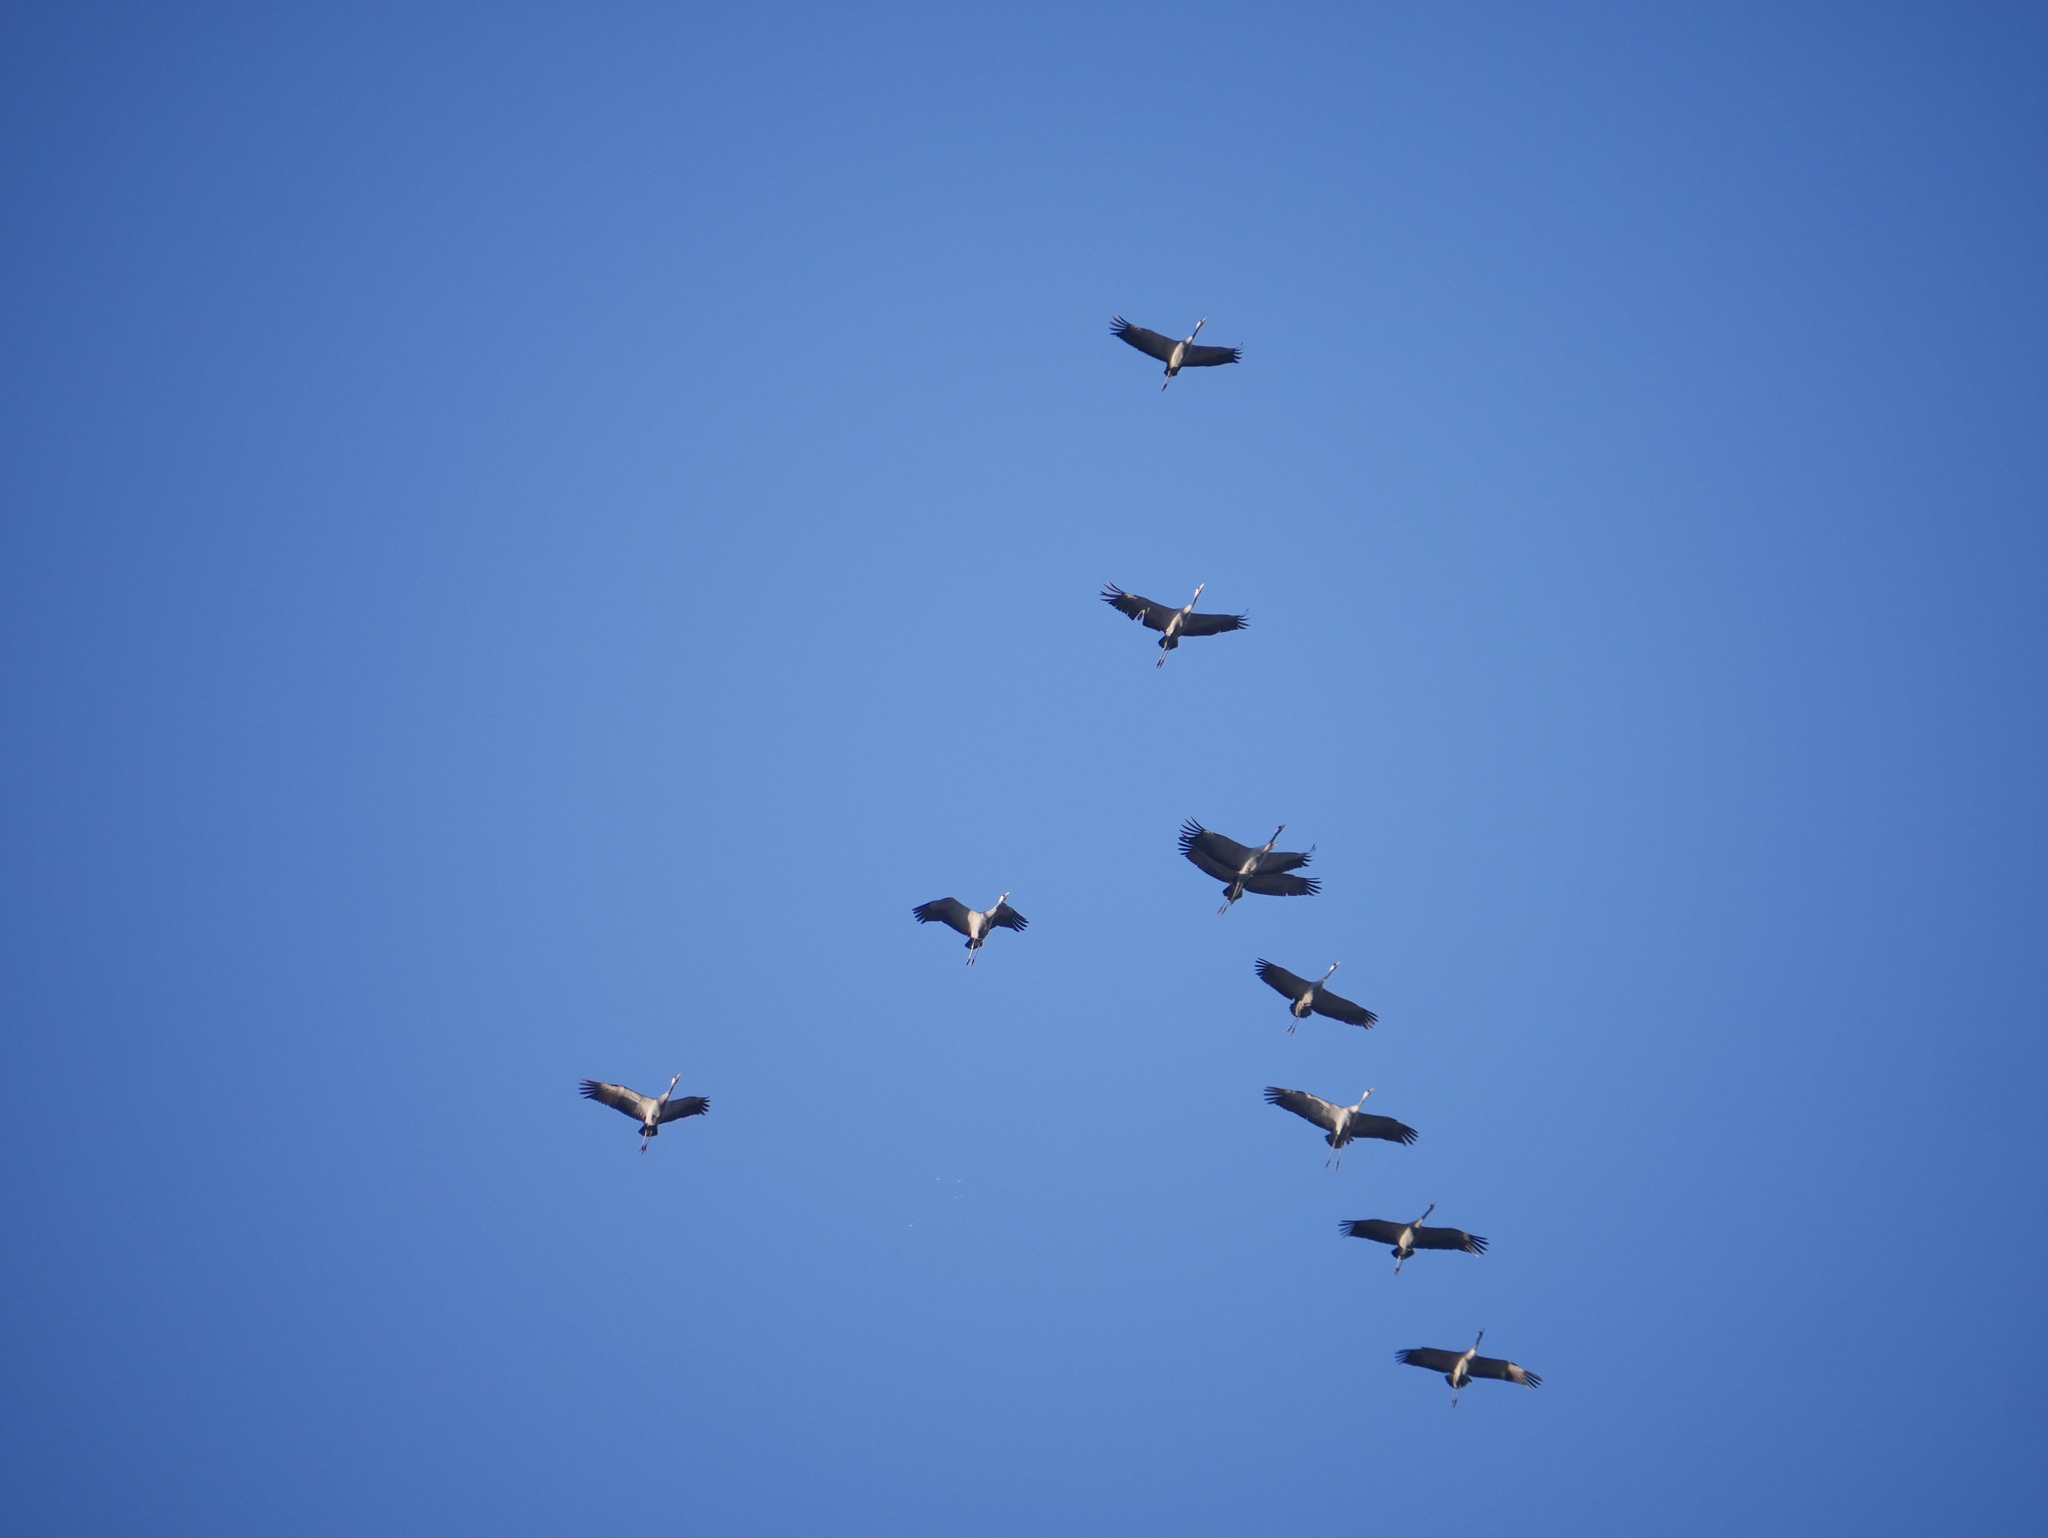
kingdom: Animalia
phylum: Chordata
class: Aves
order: Gruiformes
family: Gruidae
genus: Grus
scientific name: Grus grus
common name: Common crane
